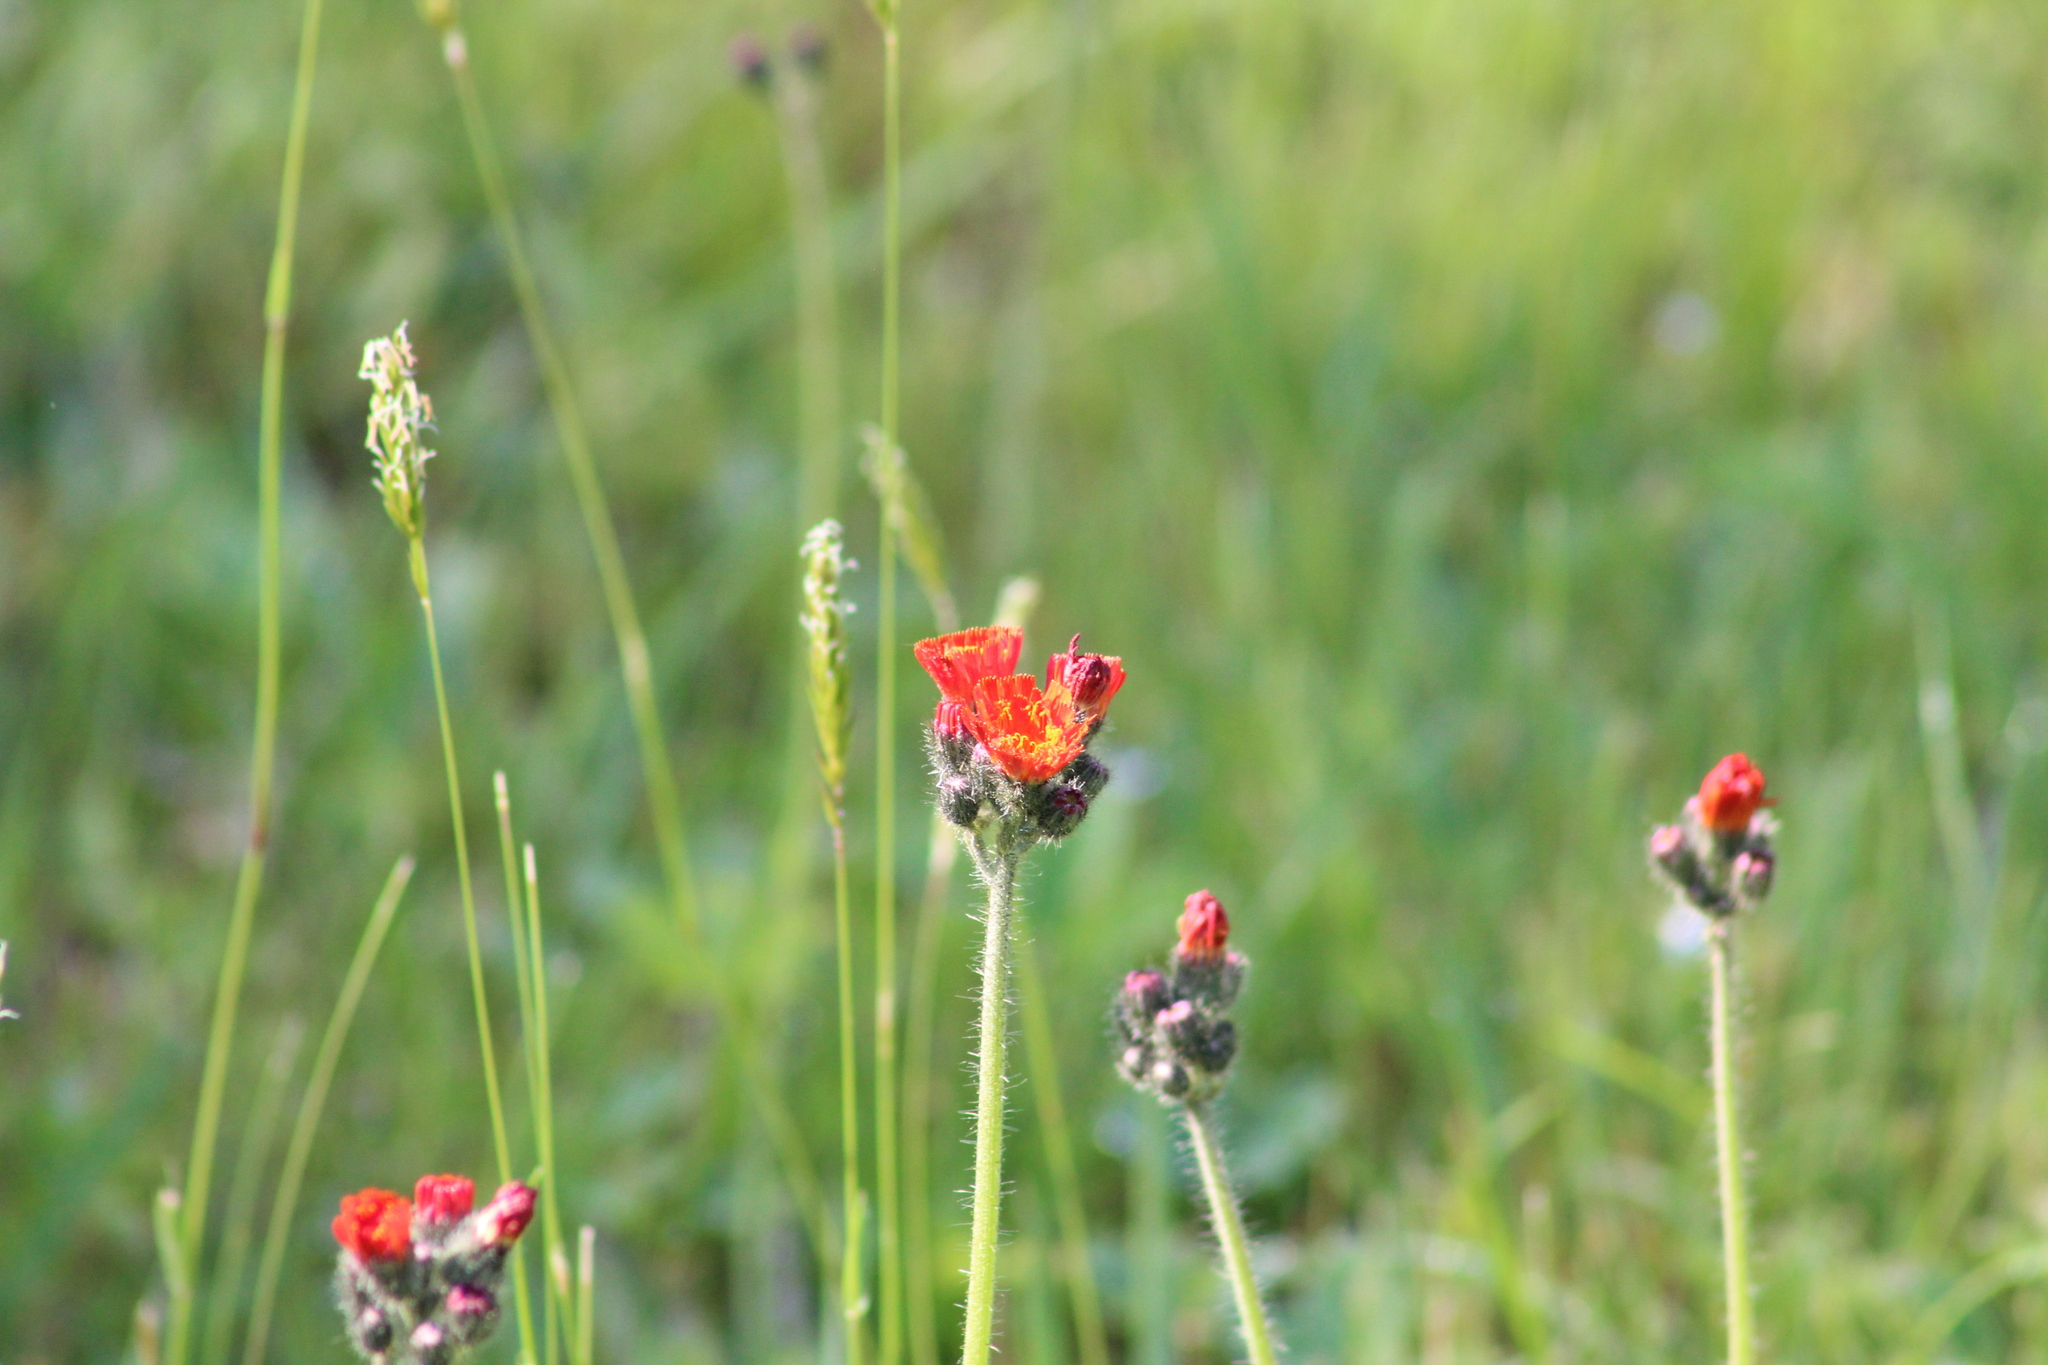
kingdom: Plantae
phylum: Tracheophyta
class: Magnoliopsida
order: Asterales
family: Asteraceae
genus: Pilosella
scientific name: Pilosella aurantiaca
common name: Fox-and-cubs
